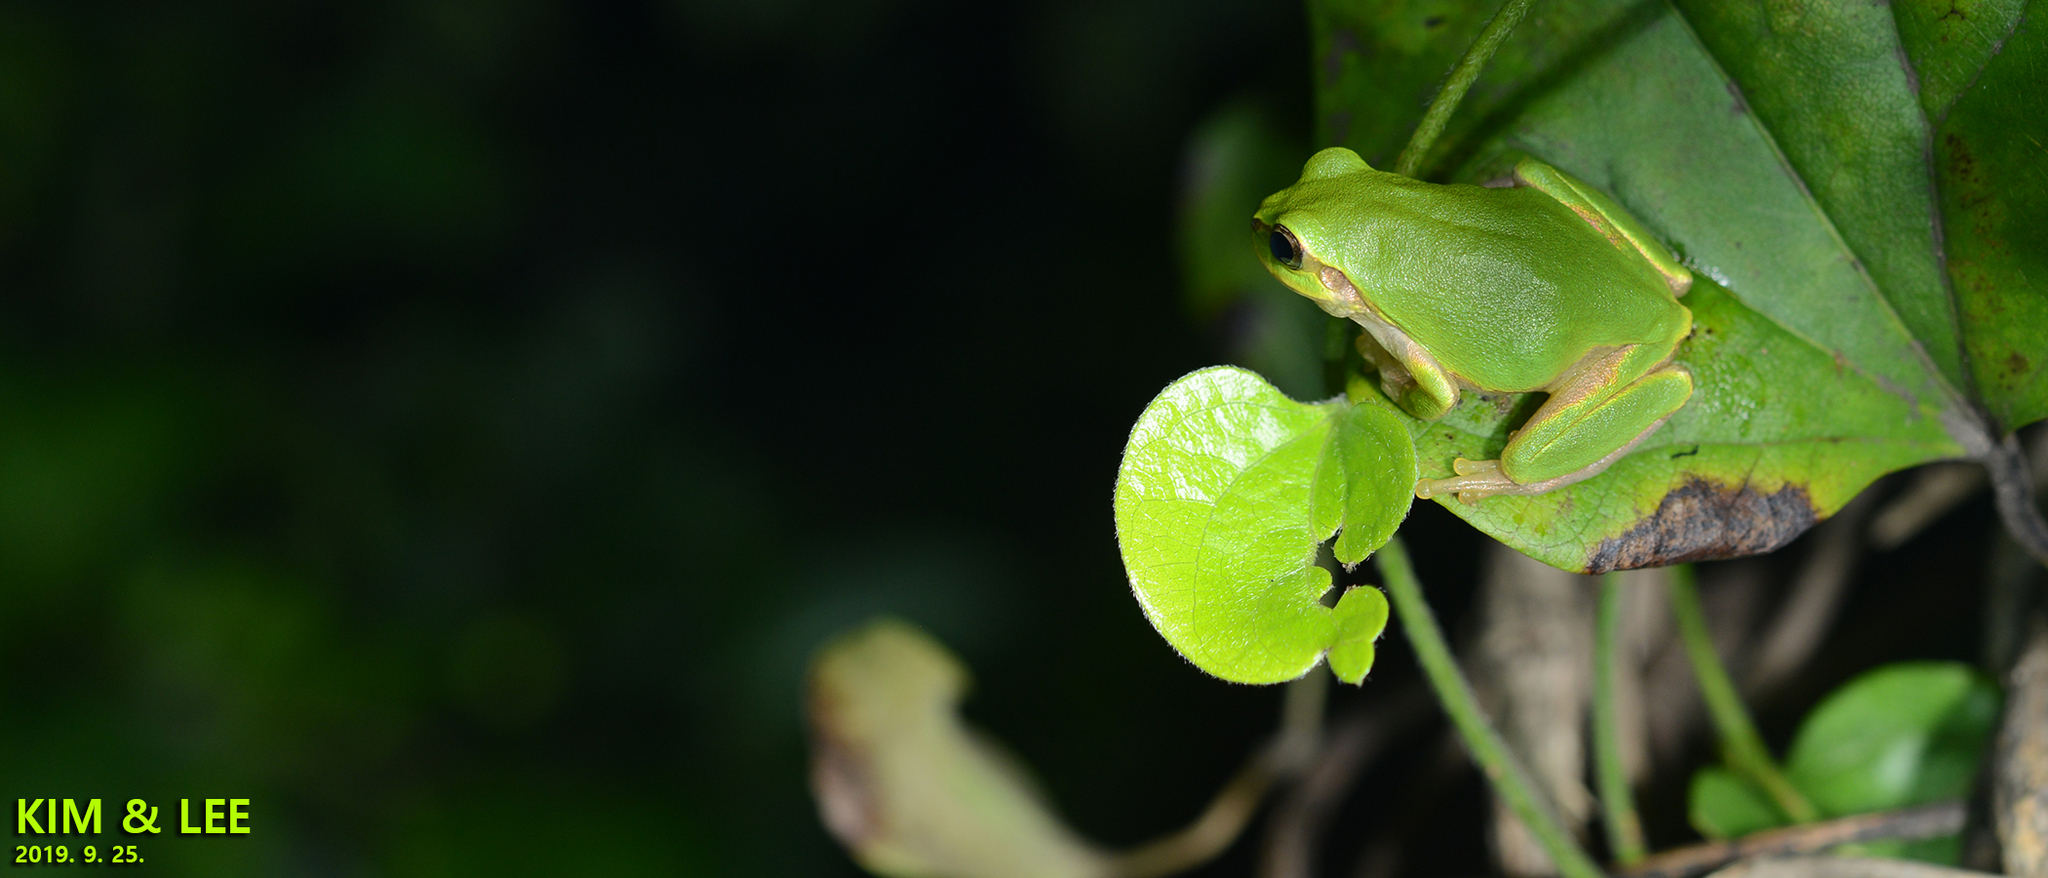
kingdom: Animalia
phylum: Chordata
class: Amphibia
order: Anura
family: Hylidae
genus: Dryophytes
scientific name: Dryophytes japonicus
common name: Japanese treefrog
